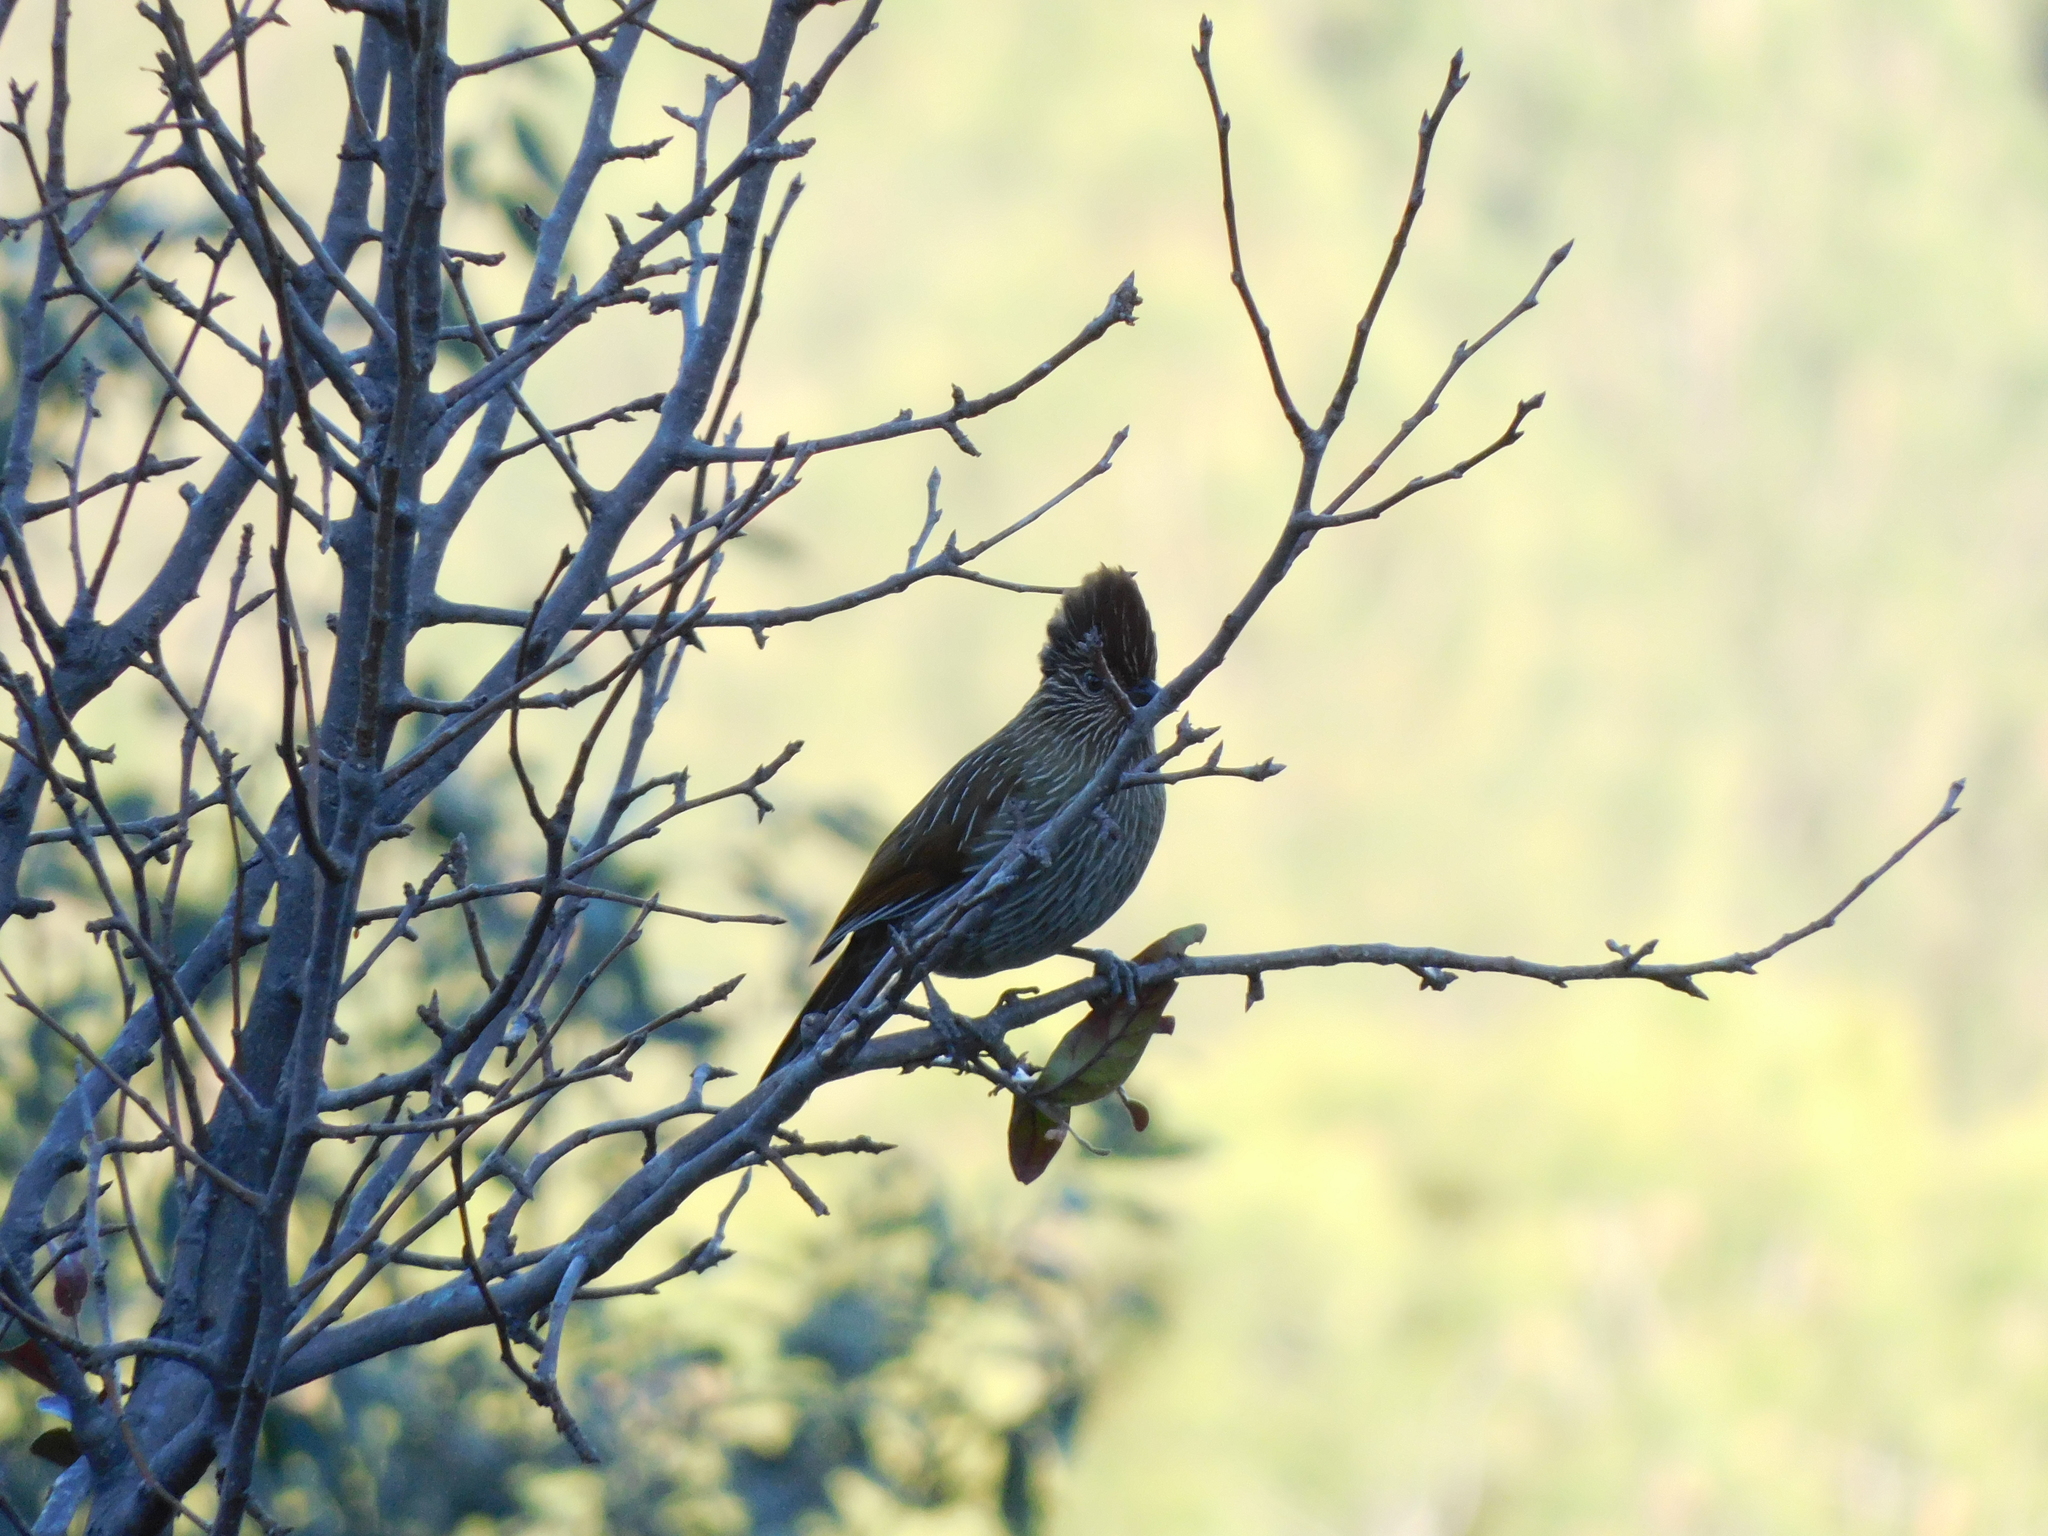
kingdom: Animalia
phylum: Chordata
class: Aves
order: Passeriformes
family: Leiothrichidae
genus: Garrulax
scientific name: Garrulax striatus
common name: Striated laughingthrush
